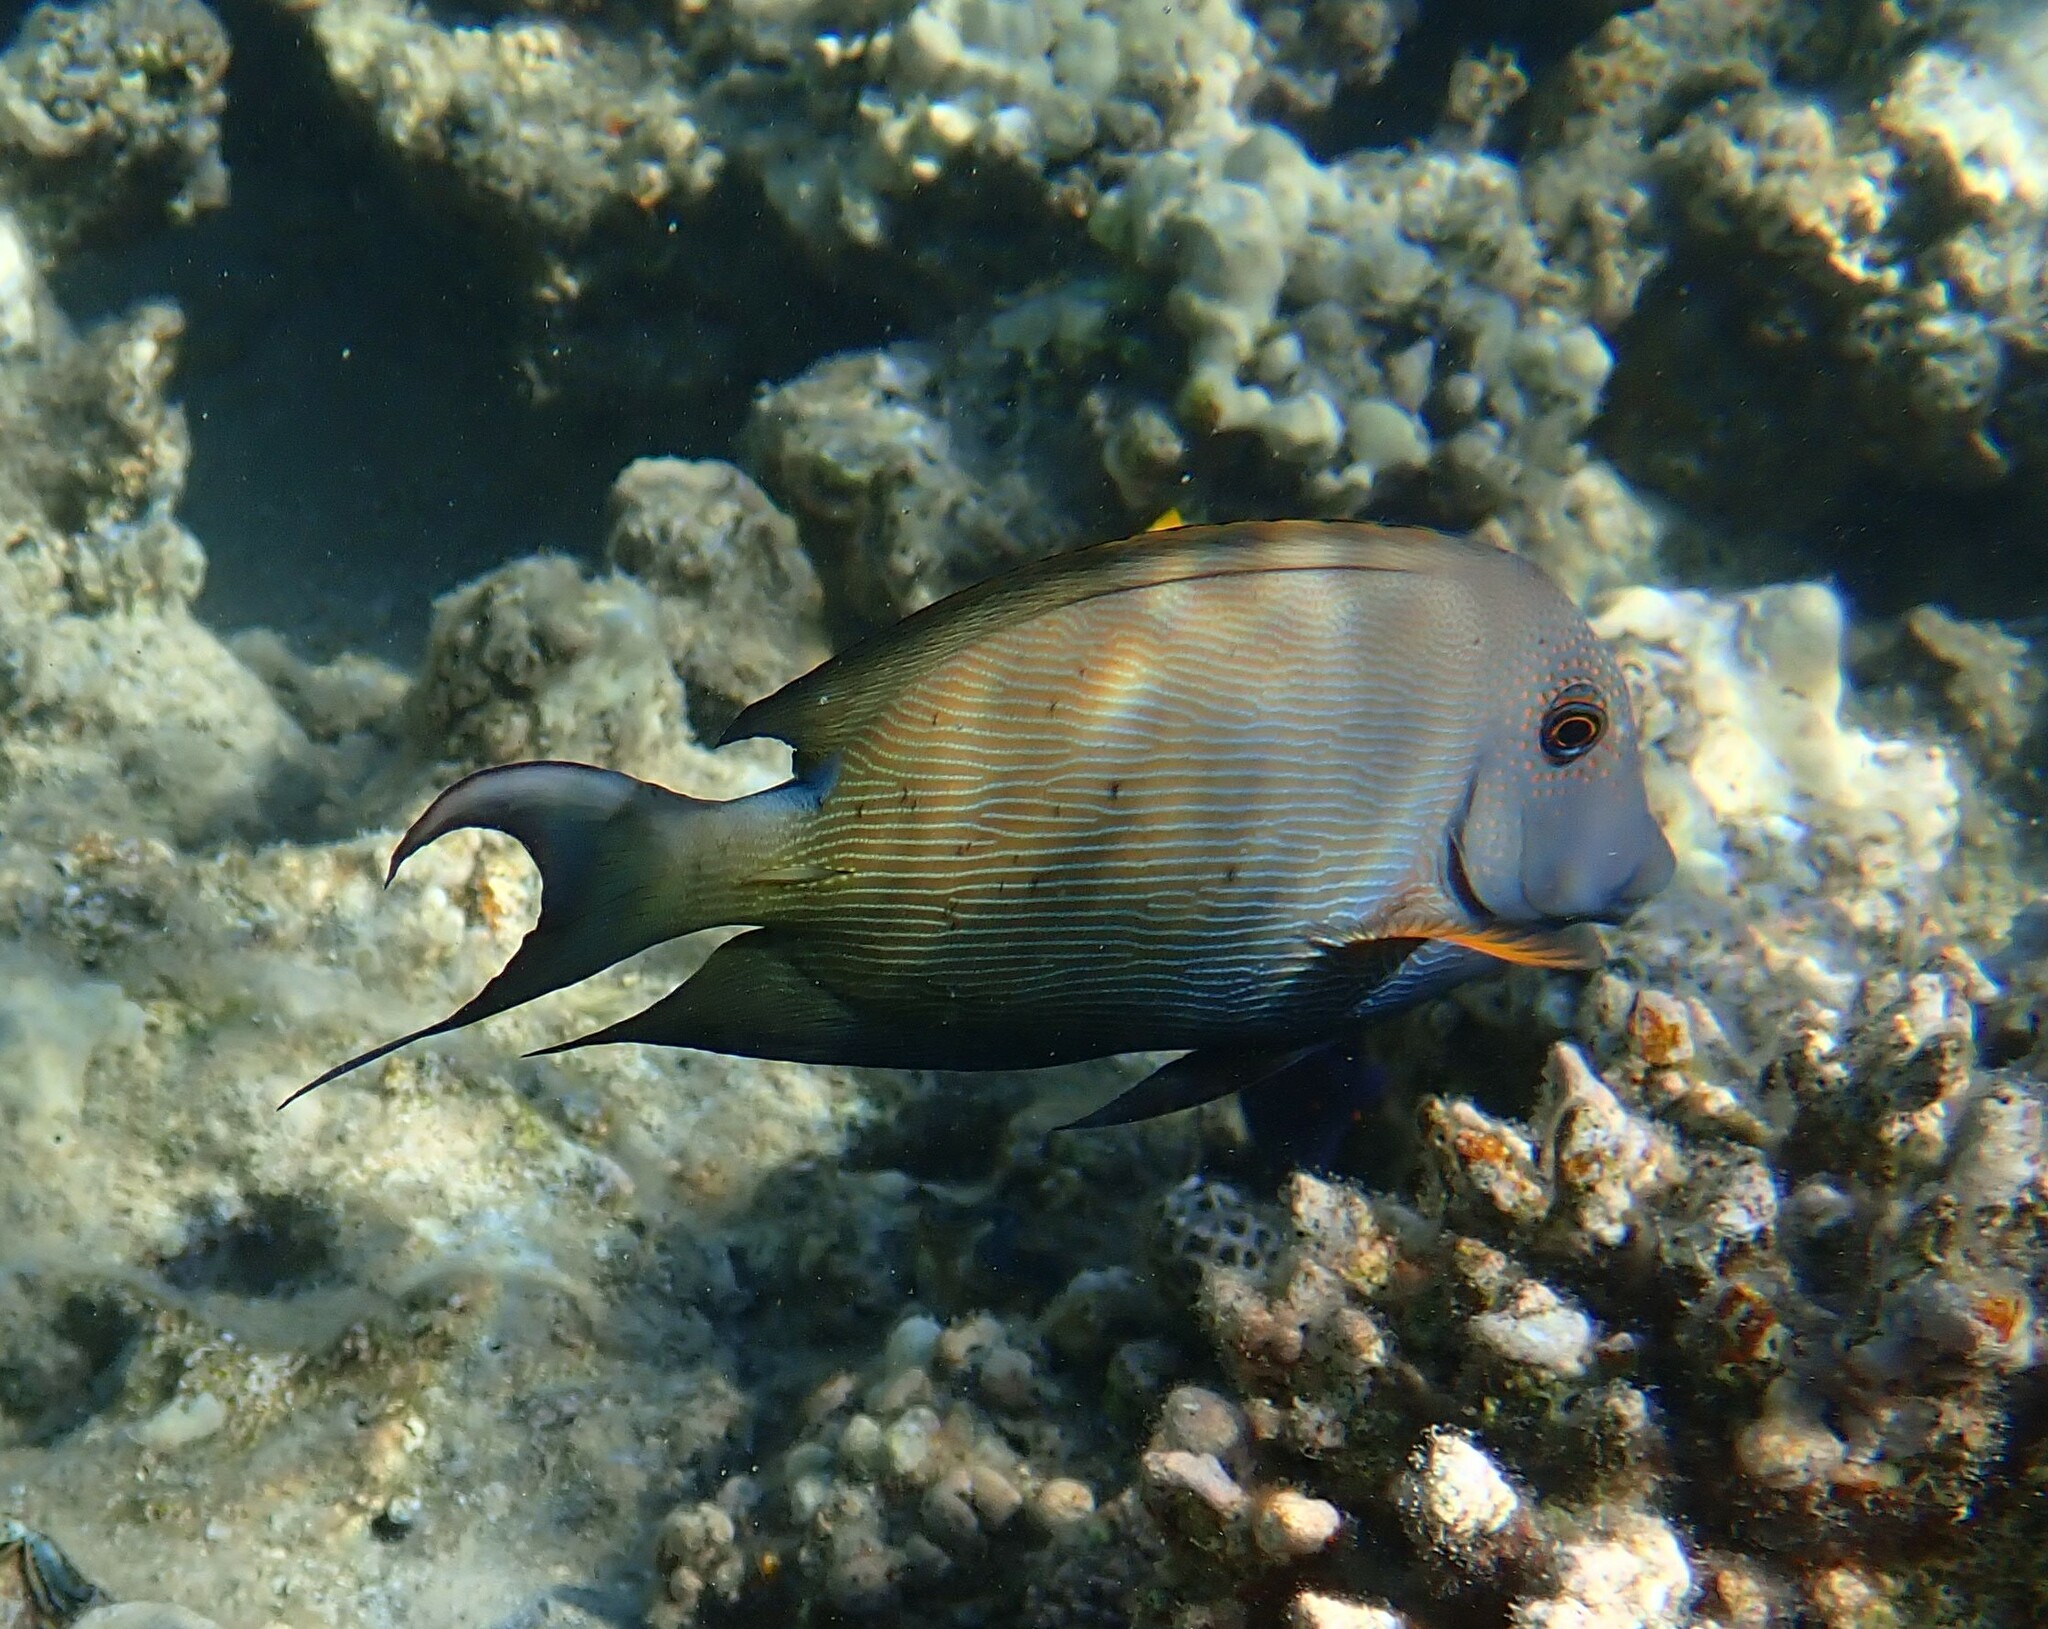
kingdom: Animalia
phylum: Chordata
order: Perciformes
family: Acanthuridae
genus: Ctenochaetus
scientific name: Ctenochaetus striatus
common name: Bristle-toothed surgeonfish
